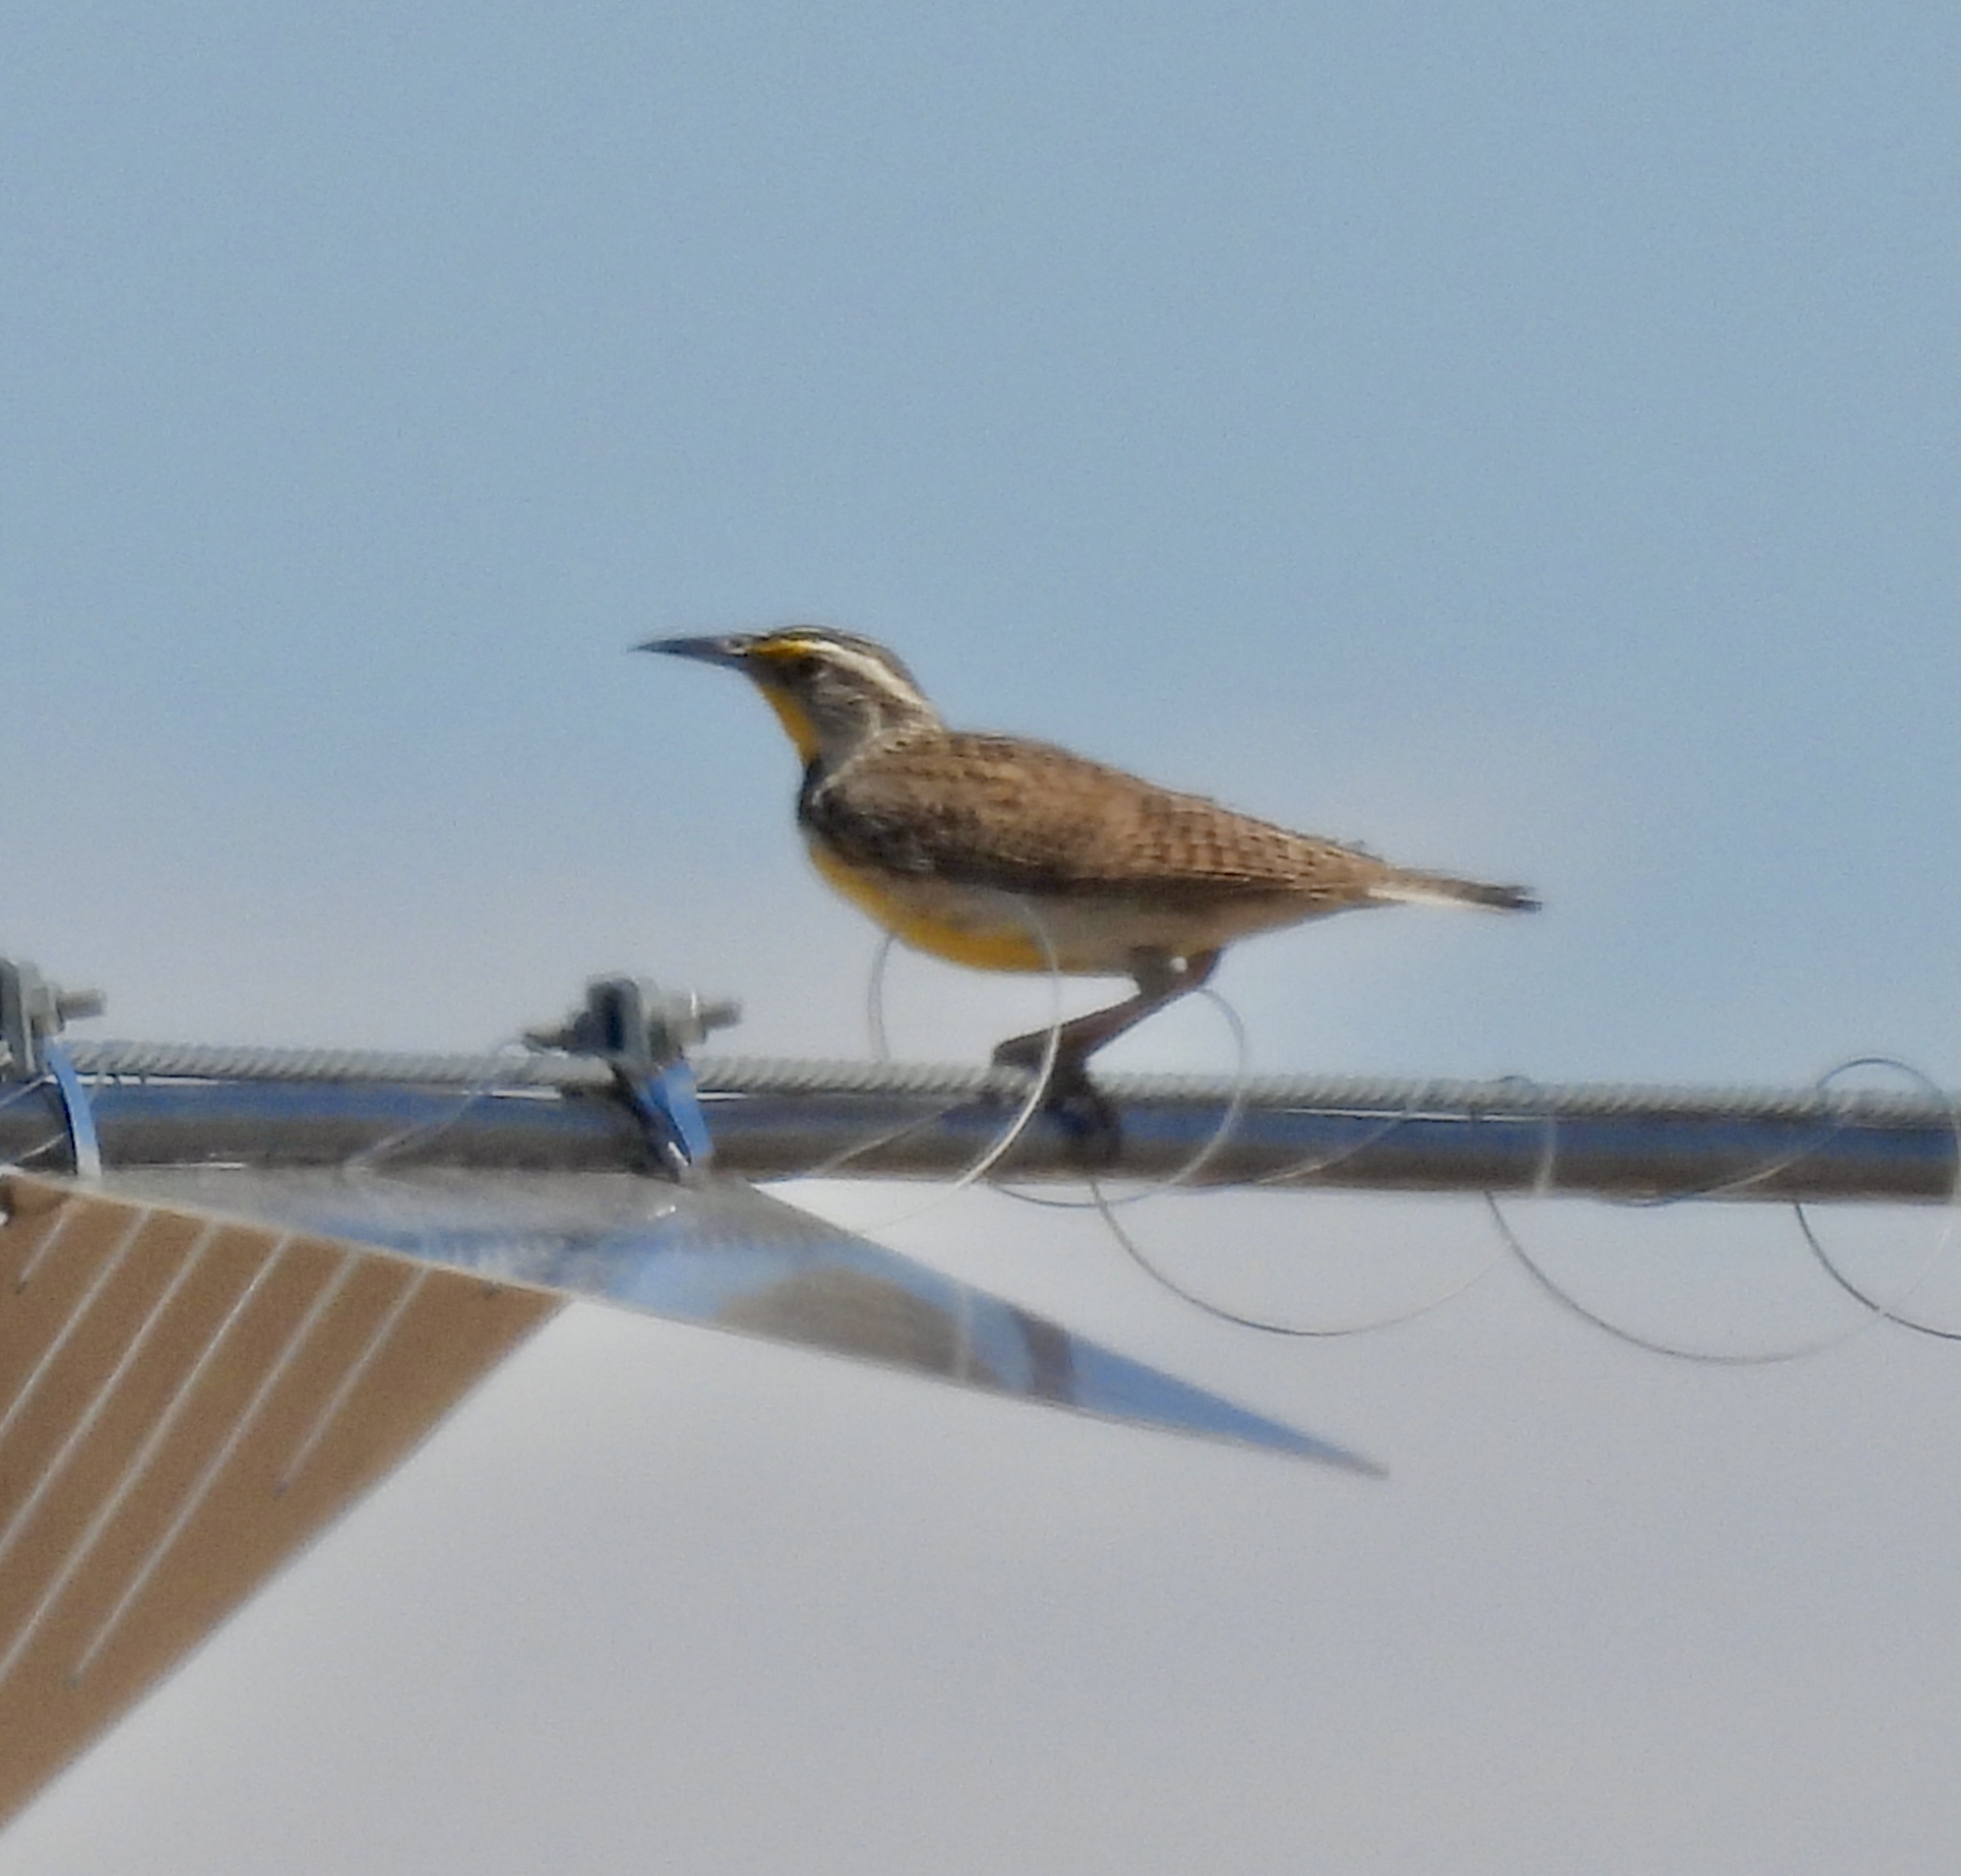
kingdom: Animalia
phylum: Chordata
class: Aves
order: Passeriformes
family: Icteridae
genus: Sturnella
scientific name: Sturnella neglecta
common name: Western meadowlark
